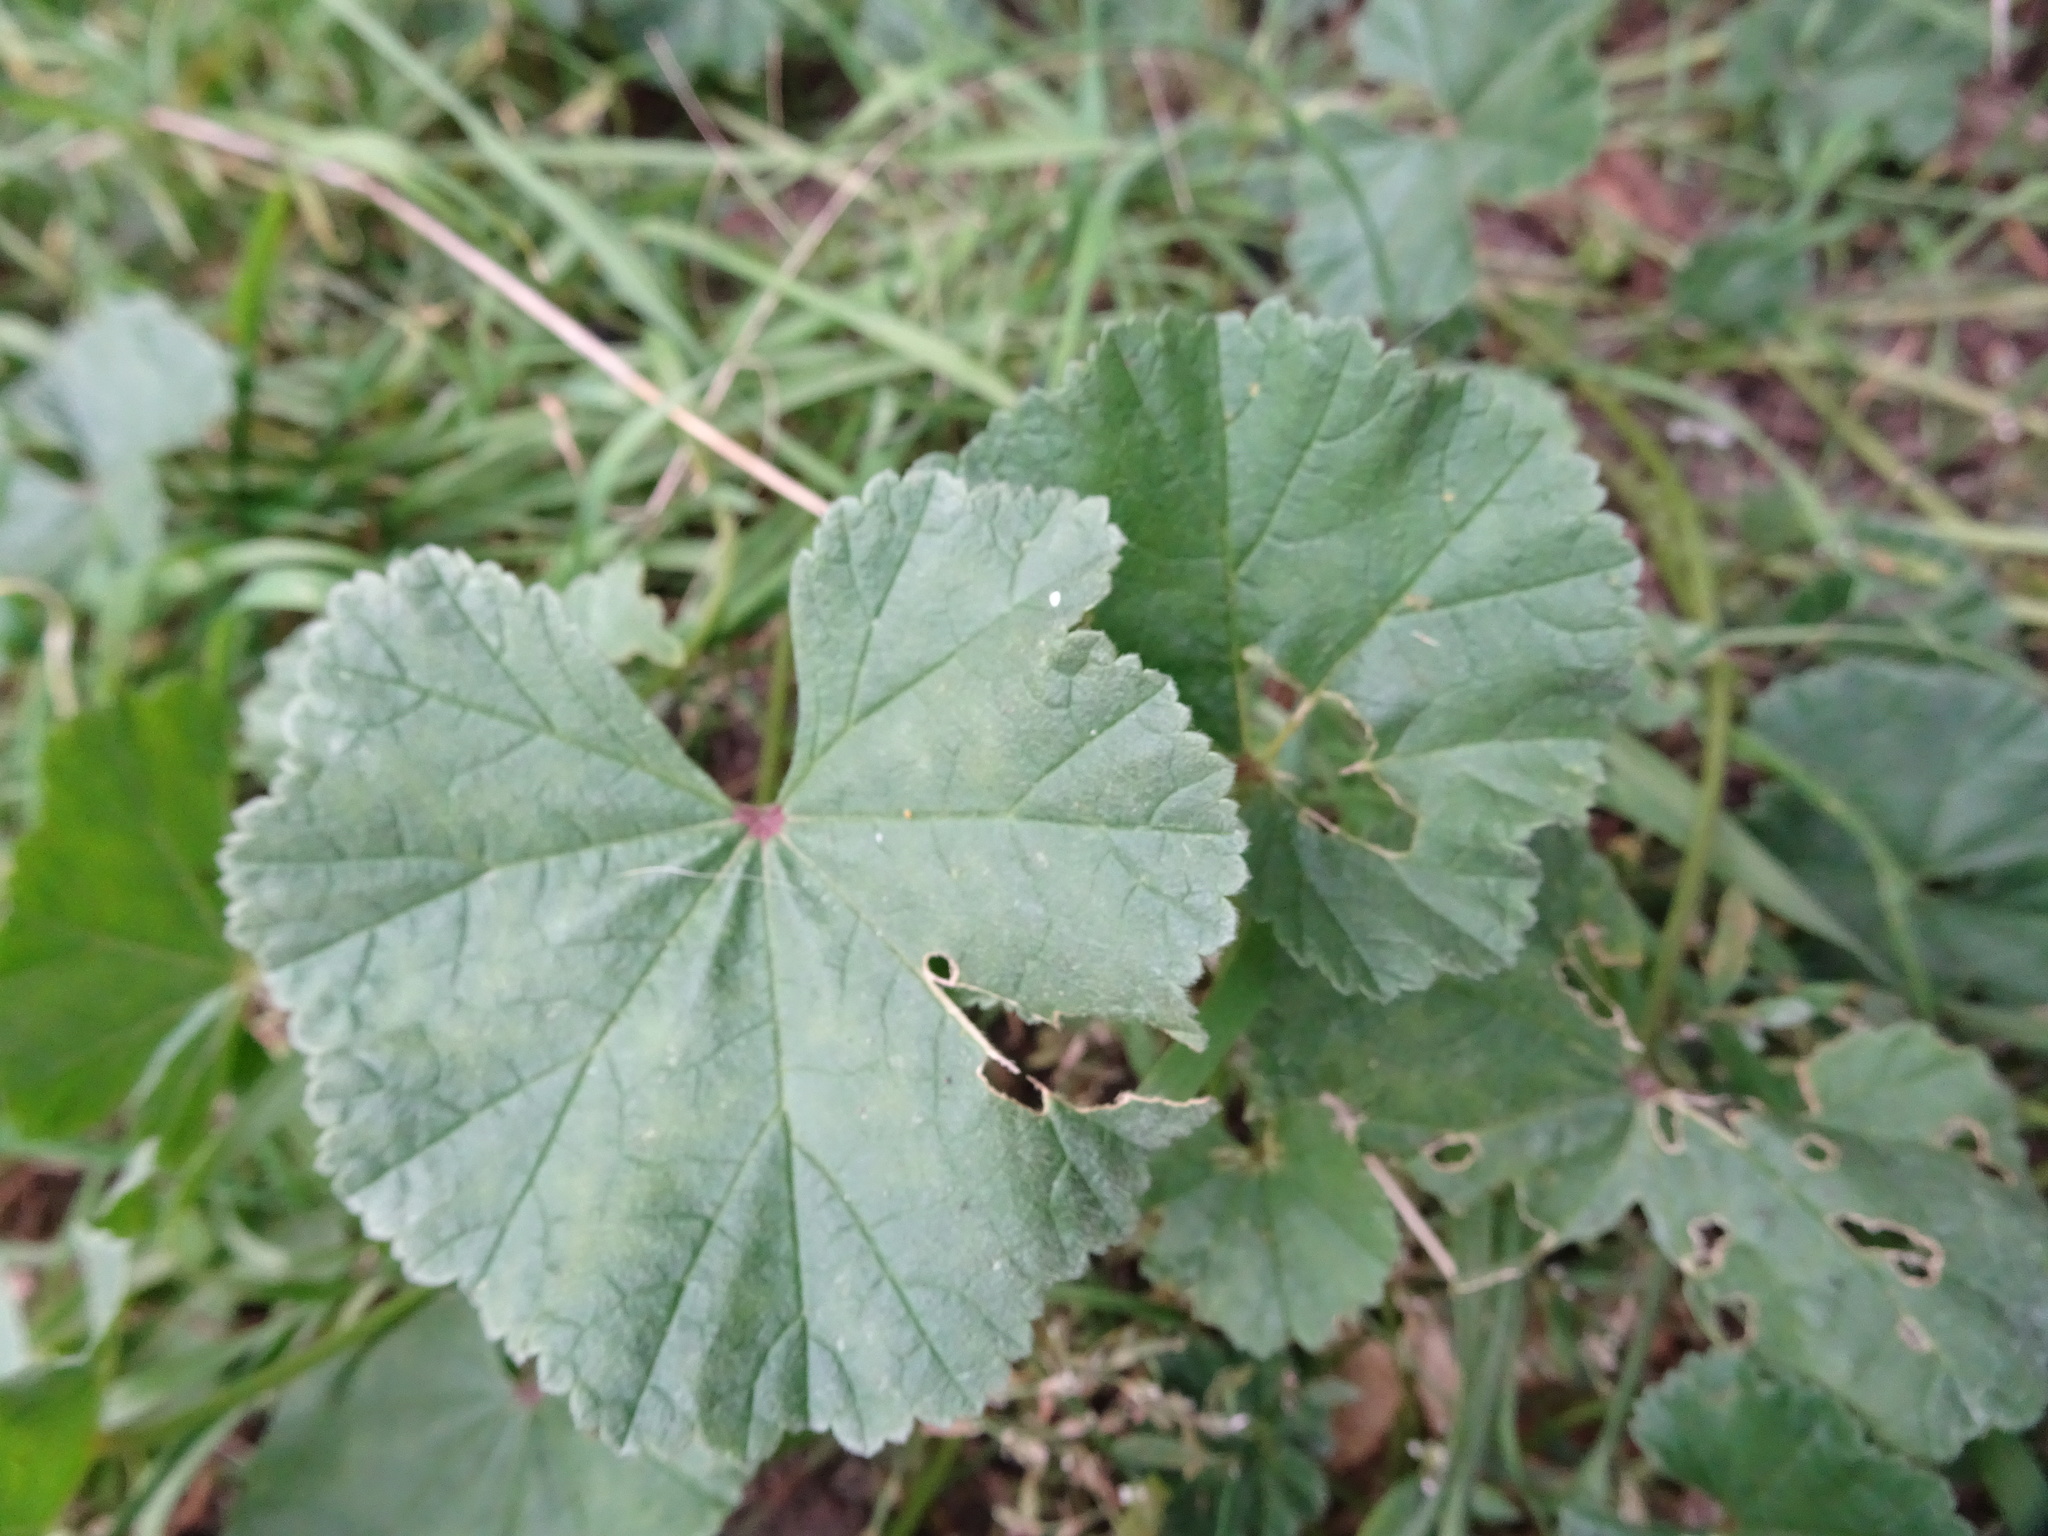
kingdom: Plantae
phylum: Tracheophyta
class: Magnoliopsida
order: Malvales
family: Malvaceae
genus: Malva
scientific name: Malva sylvestris
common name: Common mallow
